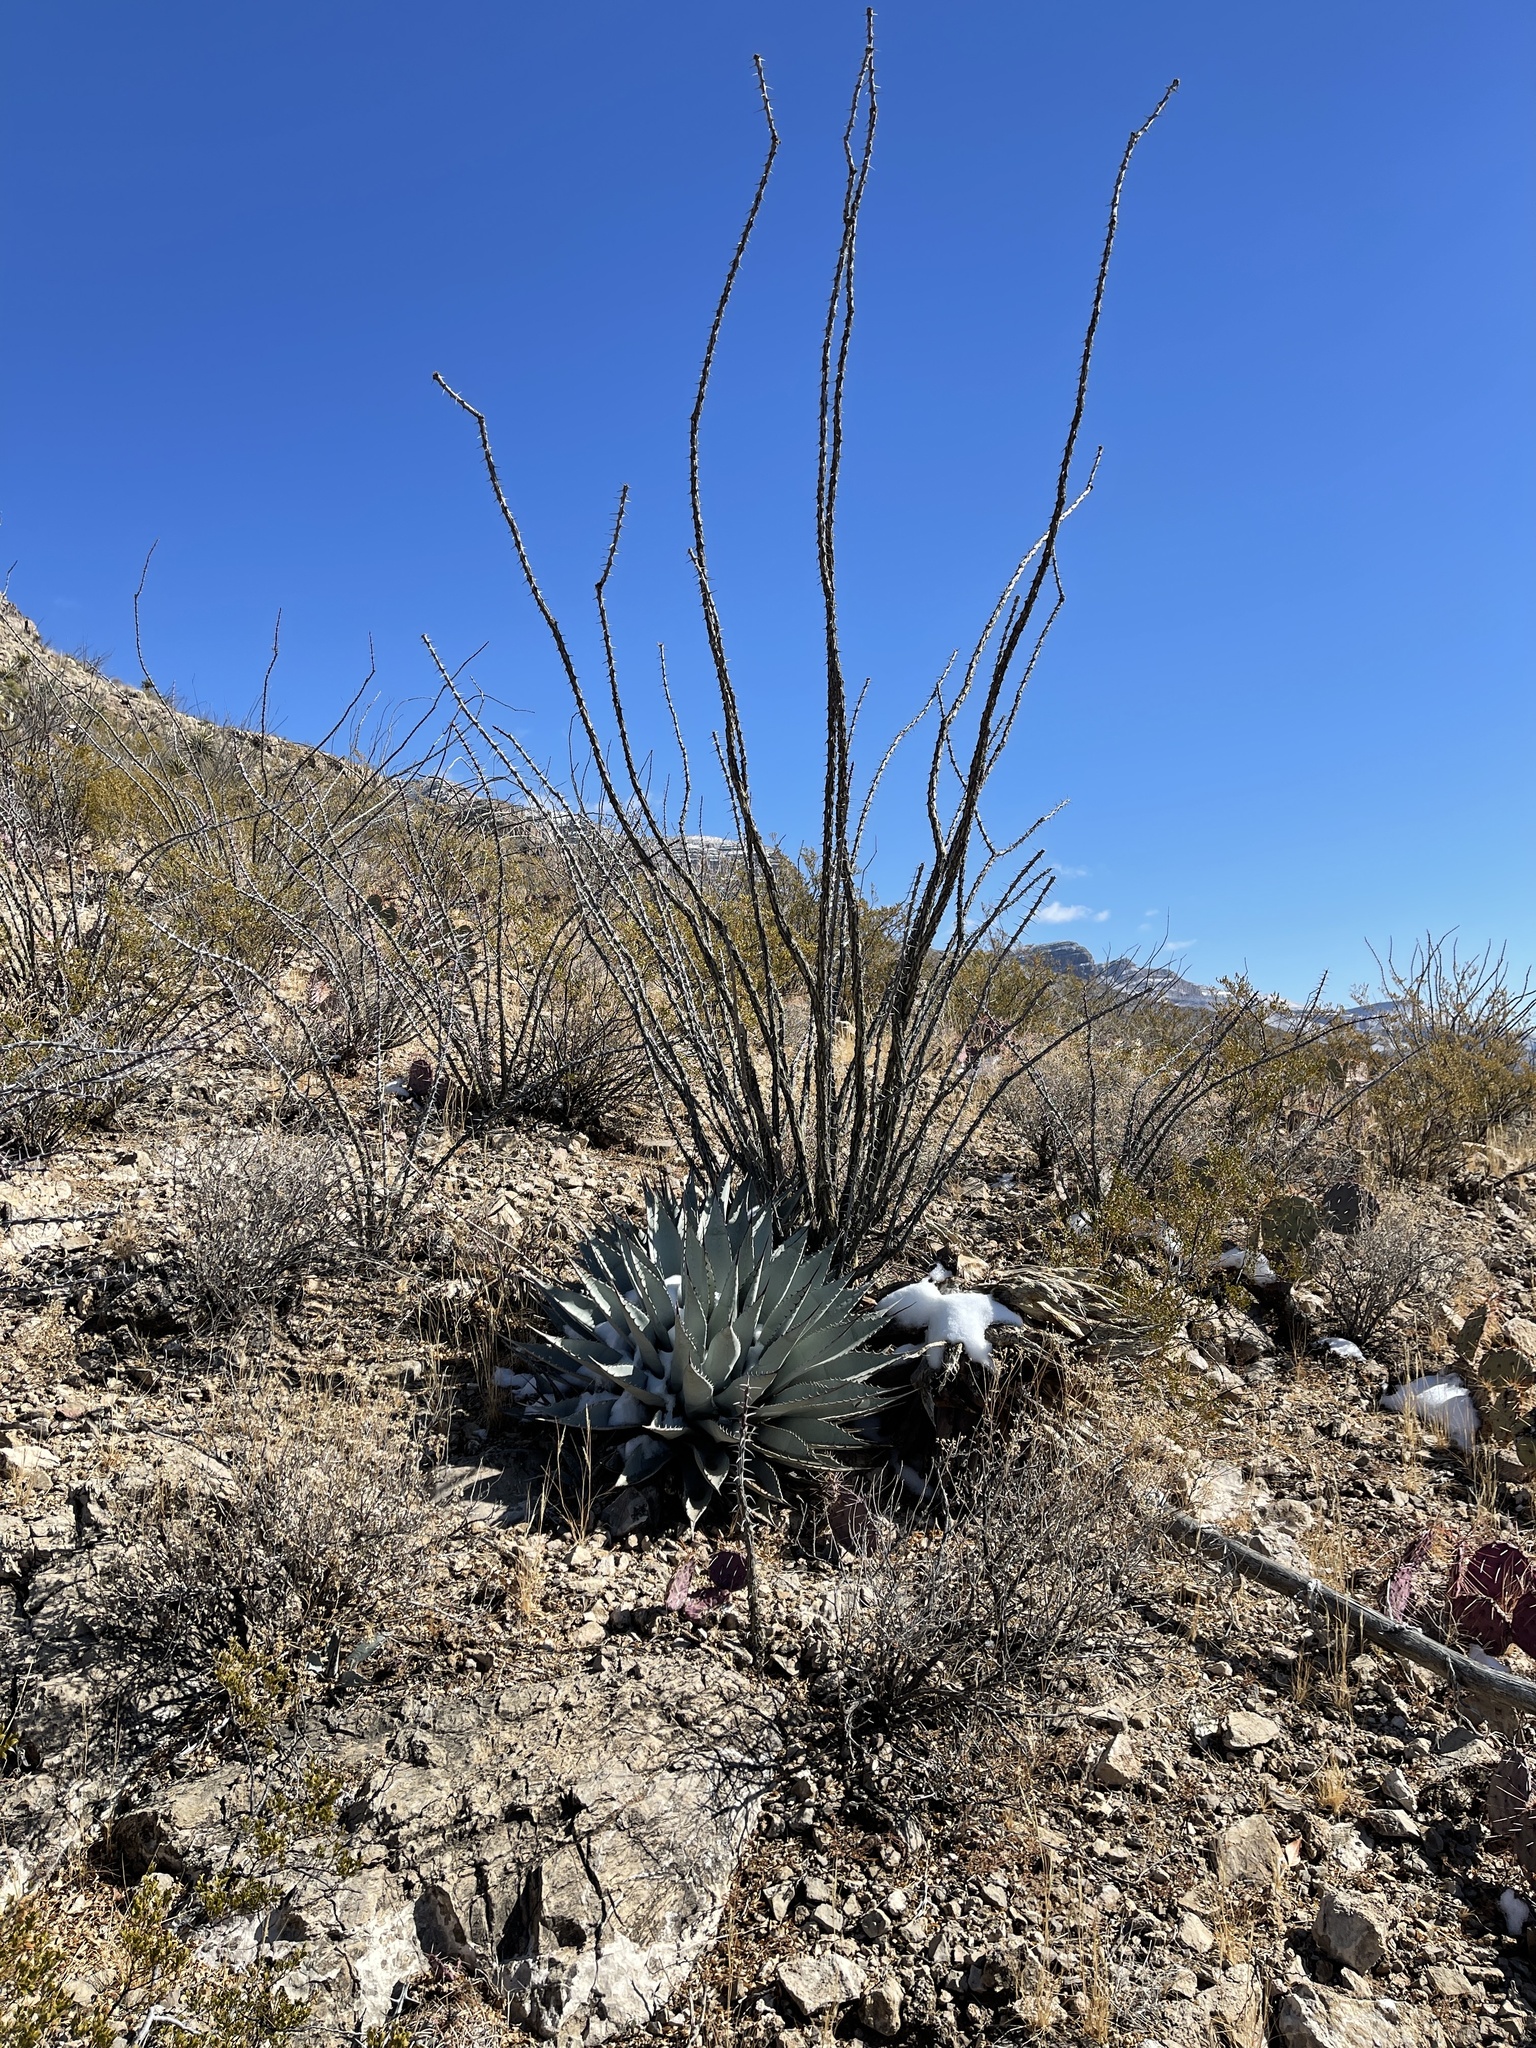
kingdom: Plantae
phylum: Tracheophyta
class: Liliopsida
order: Asparagales
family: Asparagaceae
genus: Agave
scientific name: Agave parryi
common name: Parry's agave
